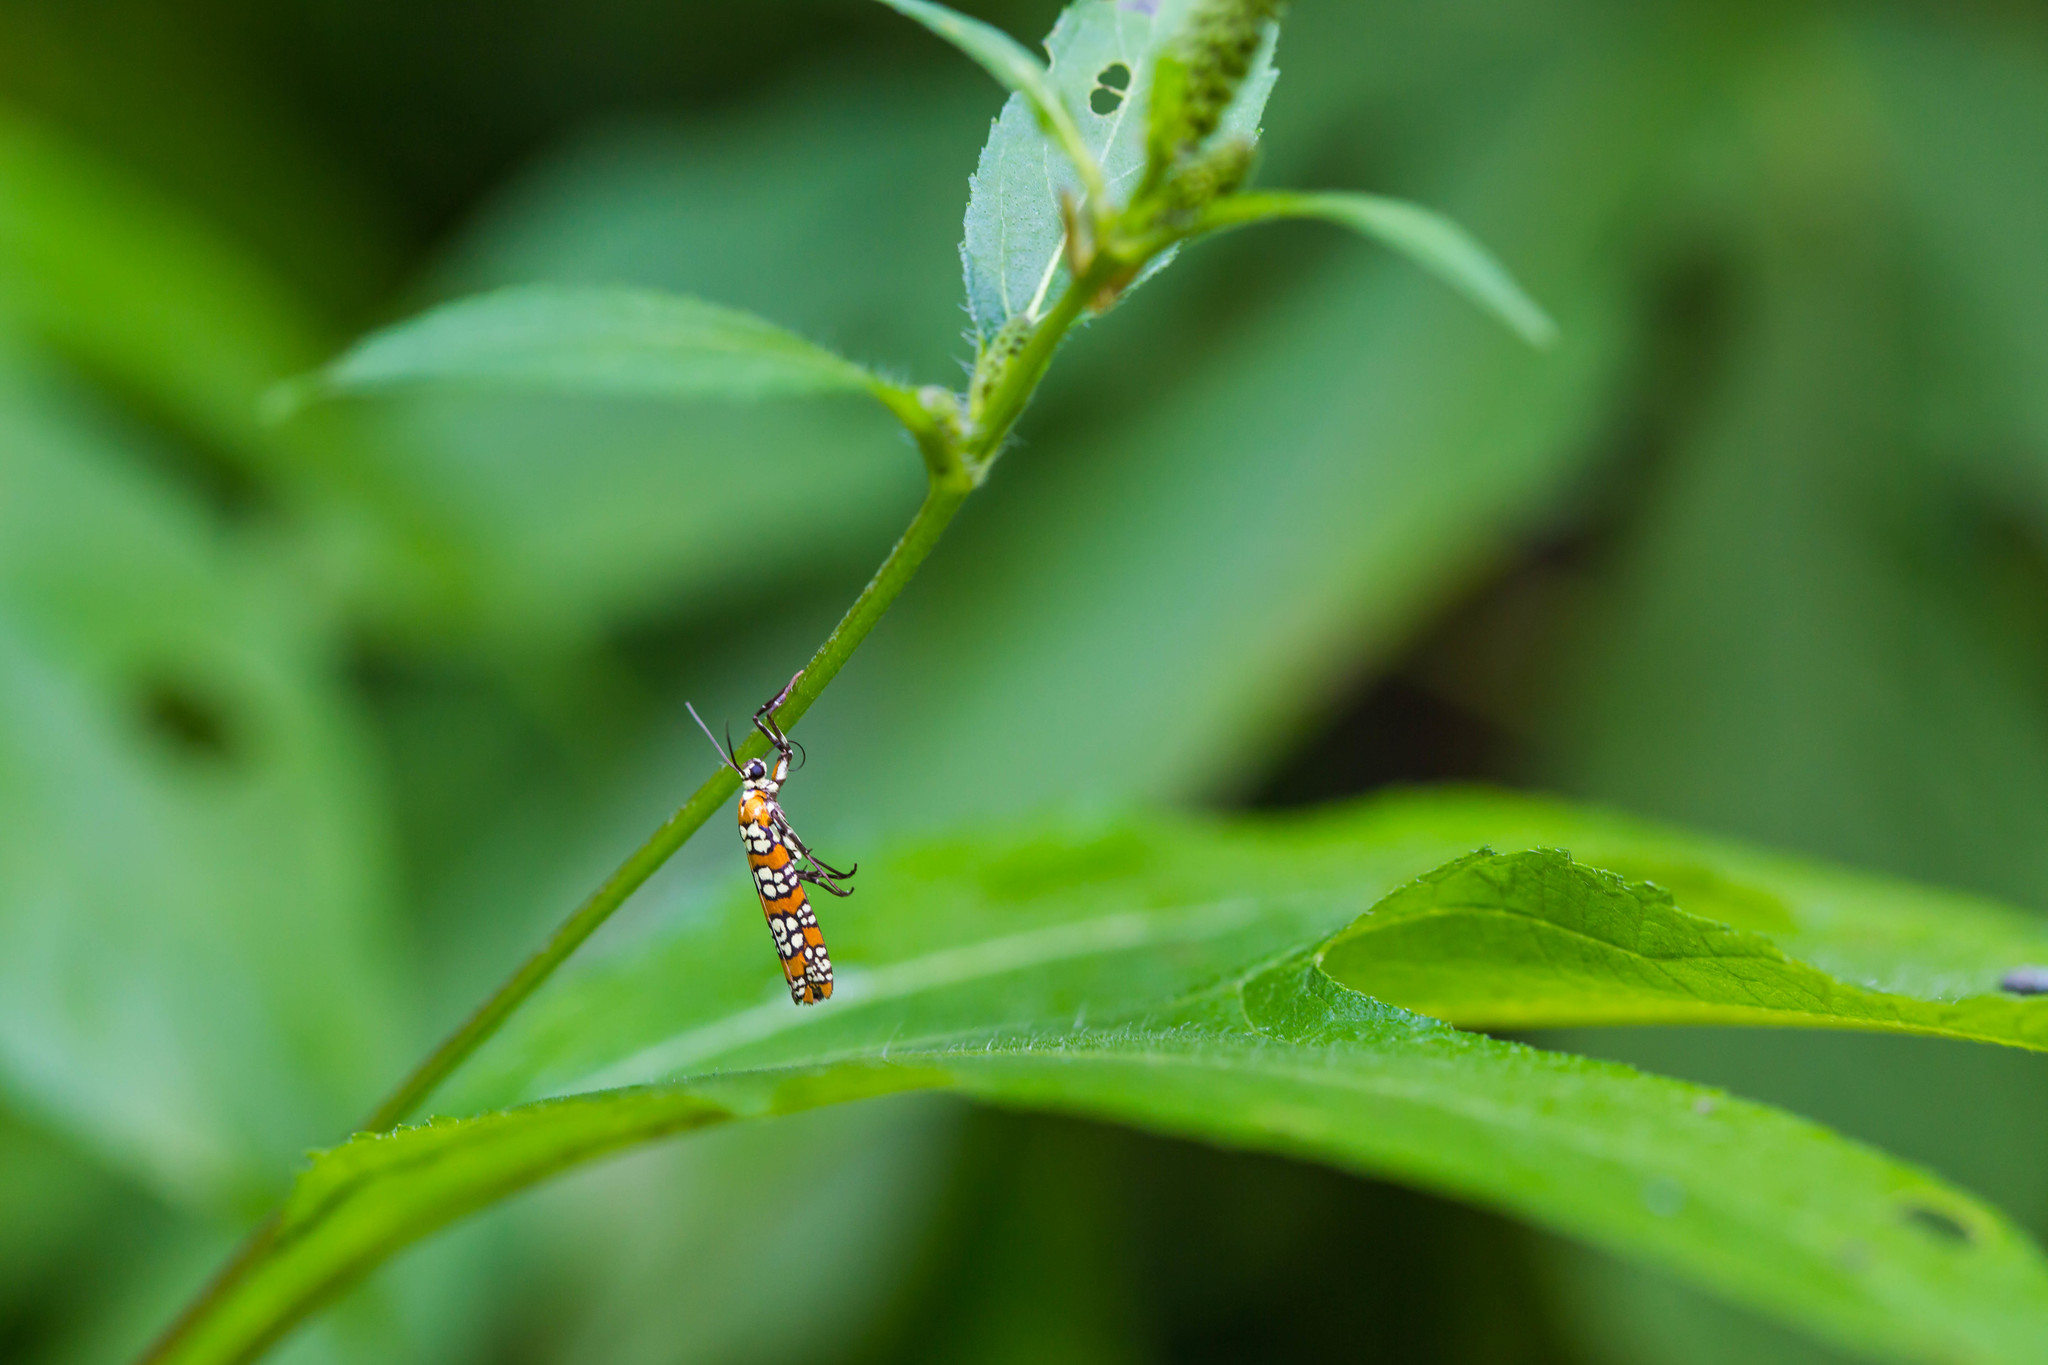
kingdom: Animalia
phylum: Arthropoda
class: Insecta
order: Lepidoptera
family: Attevidae
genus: Atteva
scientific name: Atteva punctella
